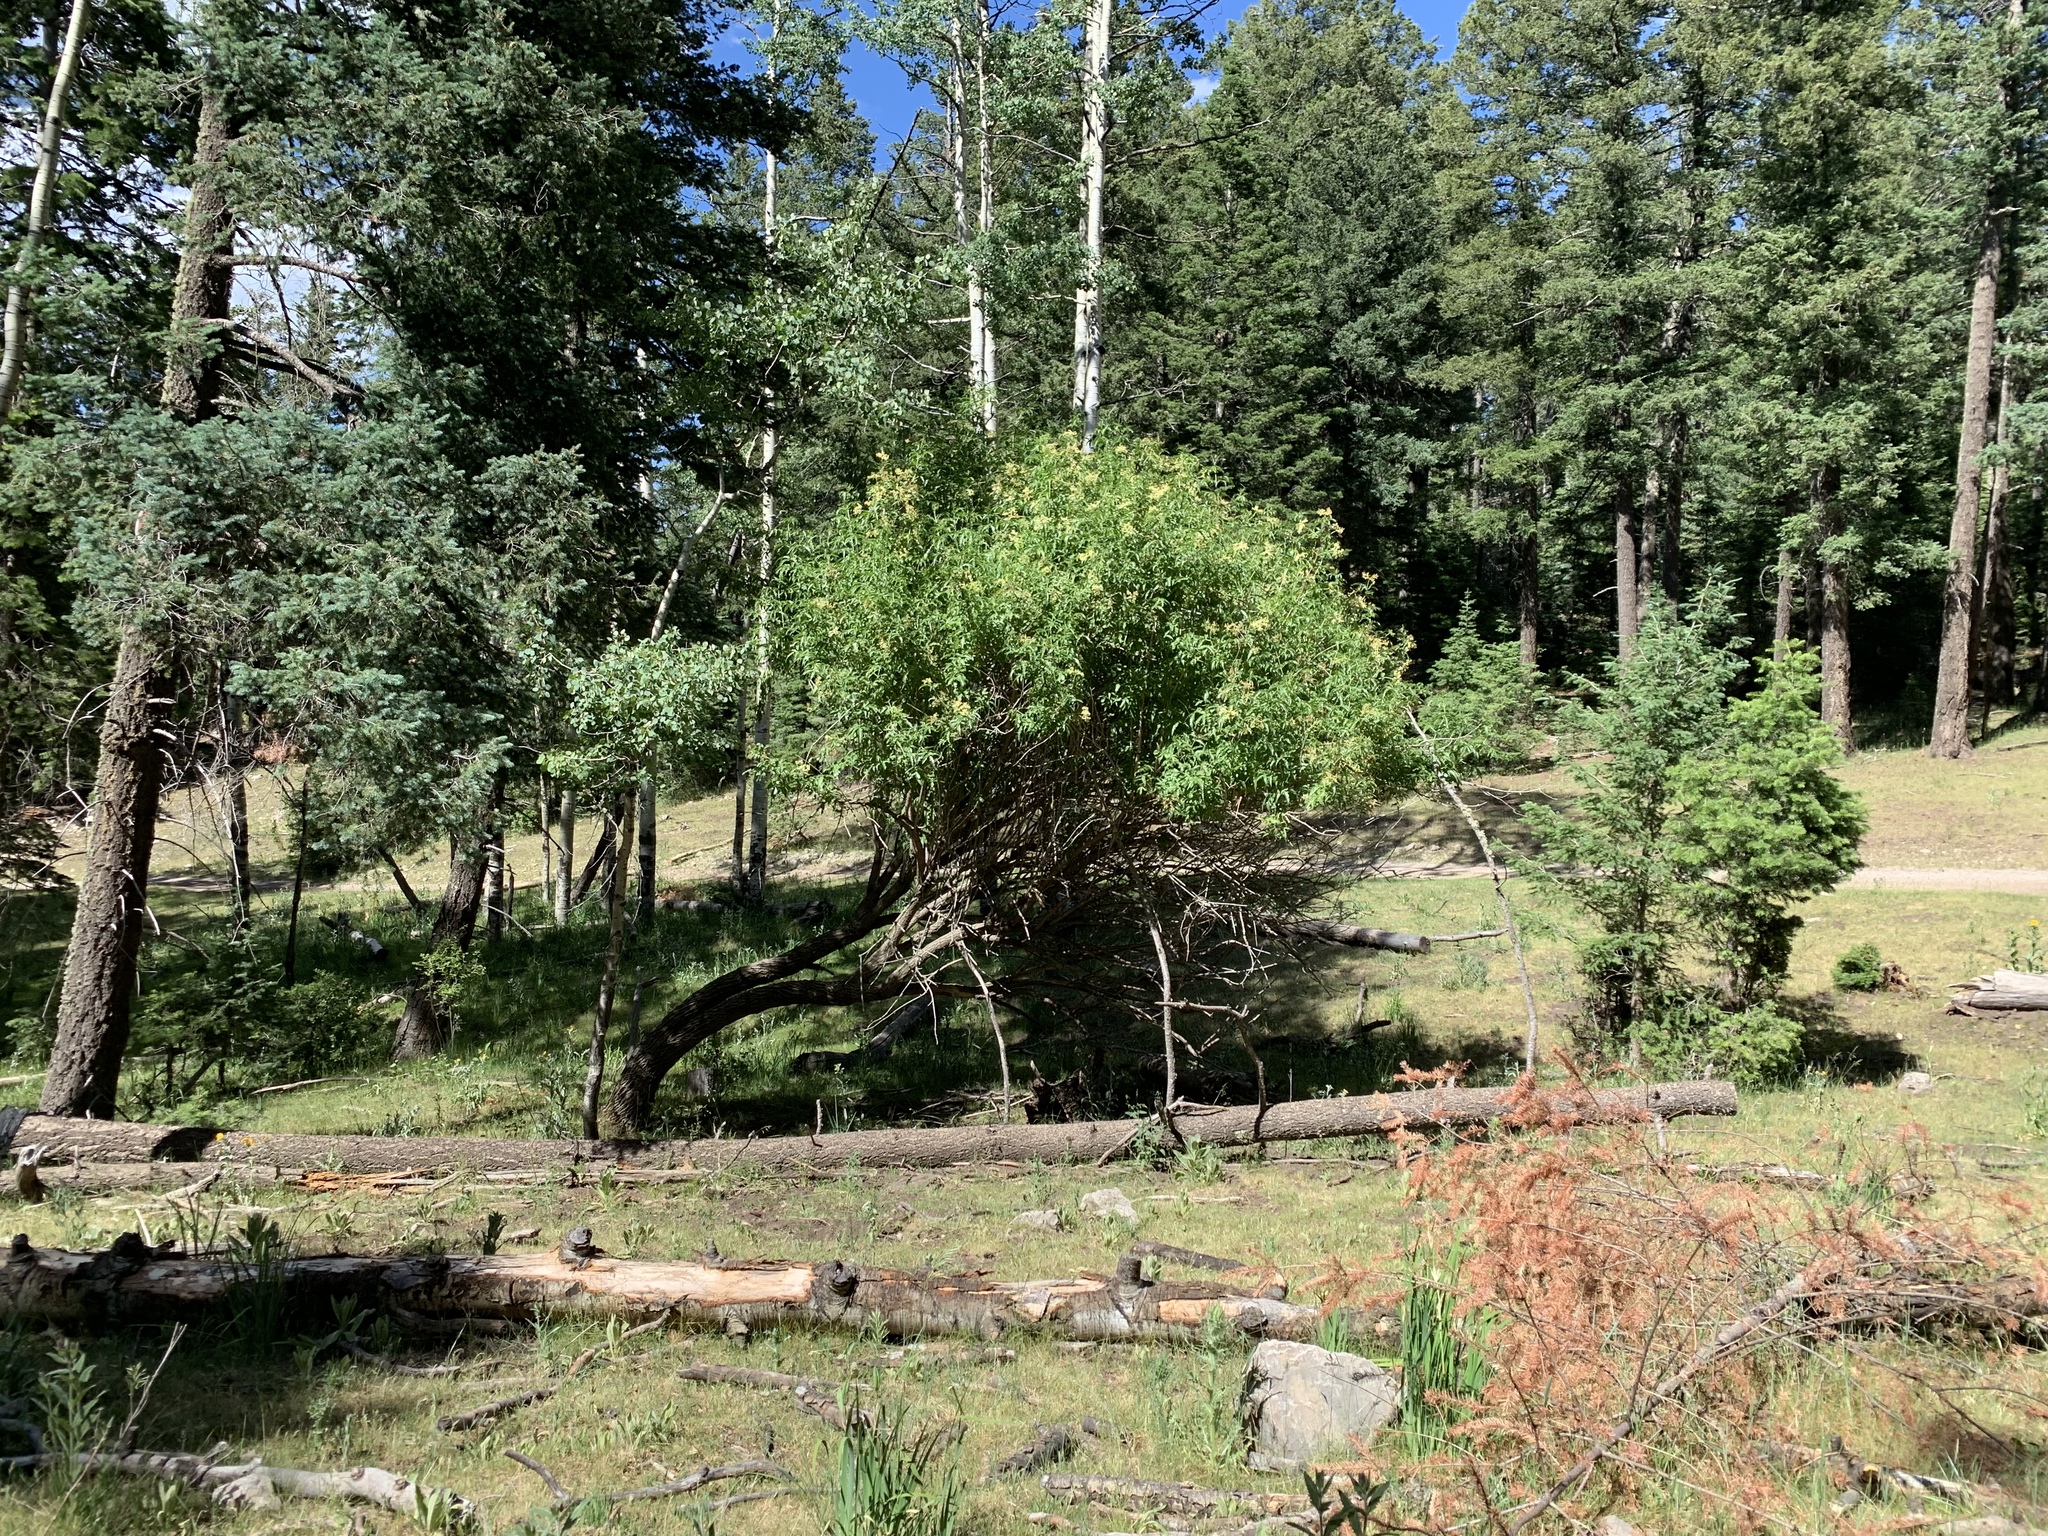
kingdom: Plantae
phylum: Tracheophyta
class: Magnoliopsida
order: Dipsacales
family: Viburnaceae
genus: Sambucus
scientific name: Sambucus cerulea
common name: Blue elder
